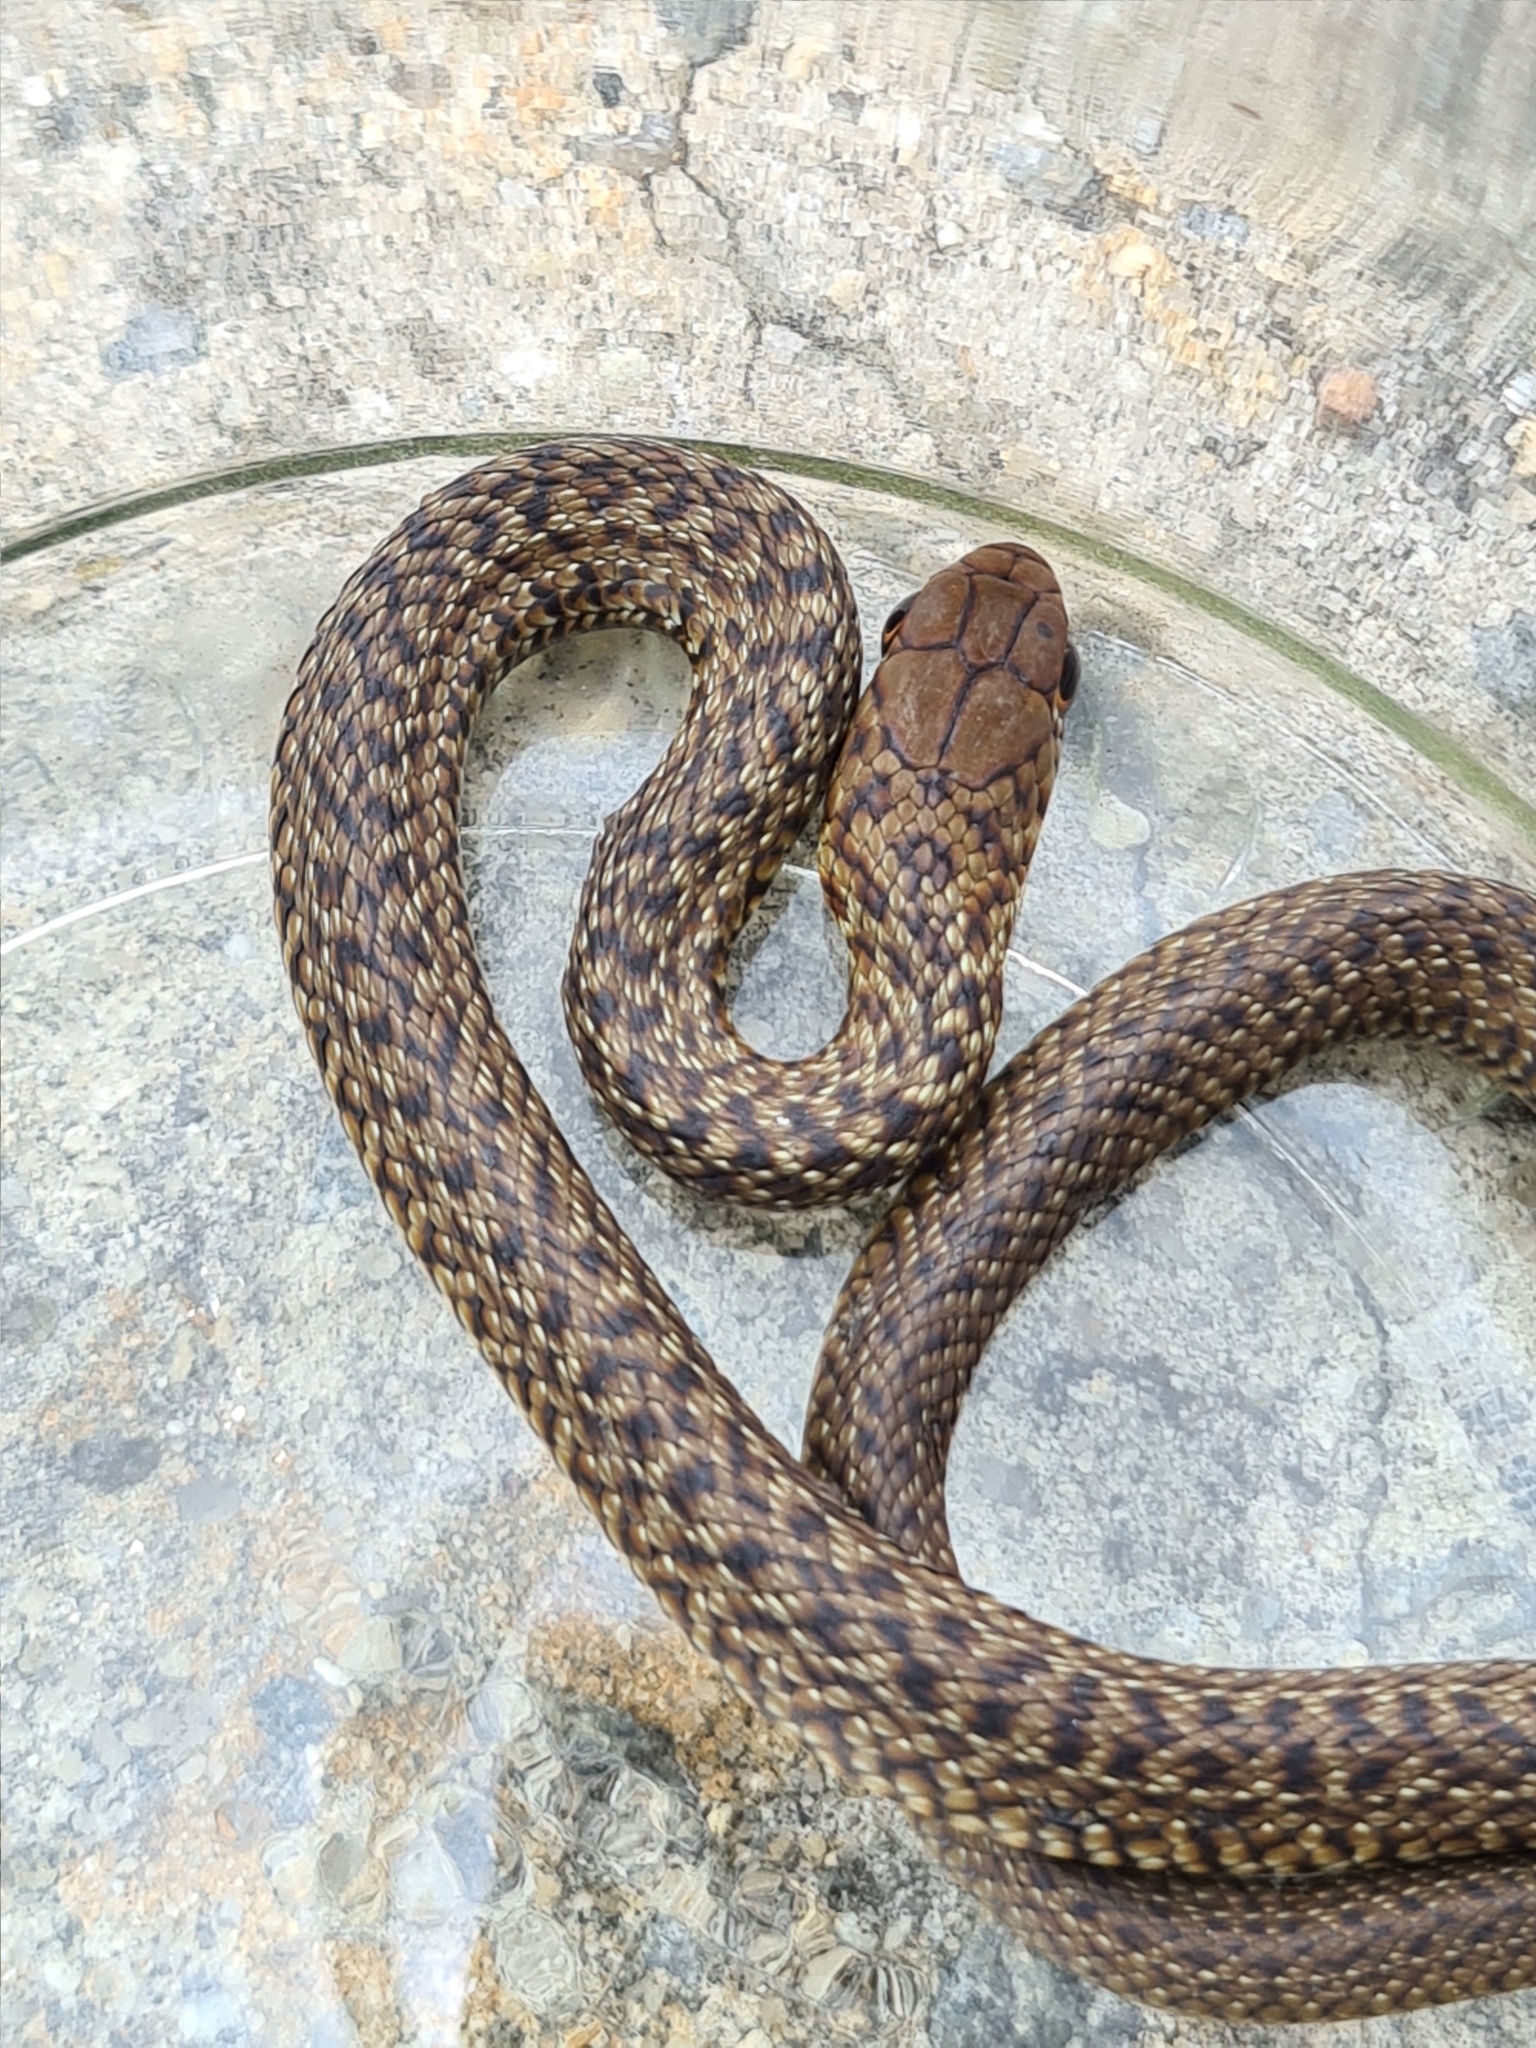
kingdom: Animalia
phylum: Chordata
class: Squamata
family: Colubridae
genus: Philodryas
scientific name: Philodryas patagoniensis
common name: Patagonia green racer
